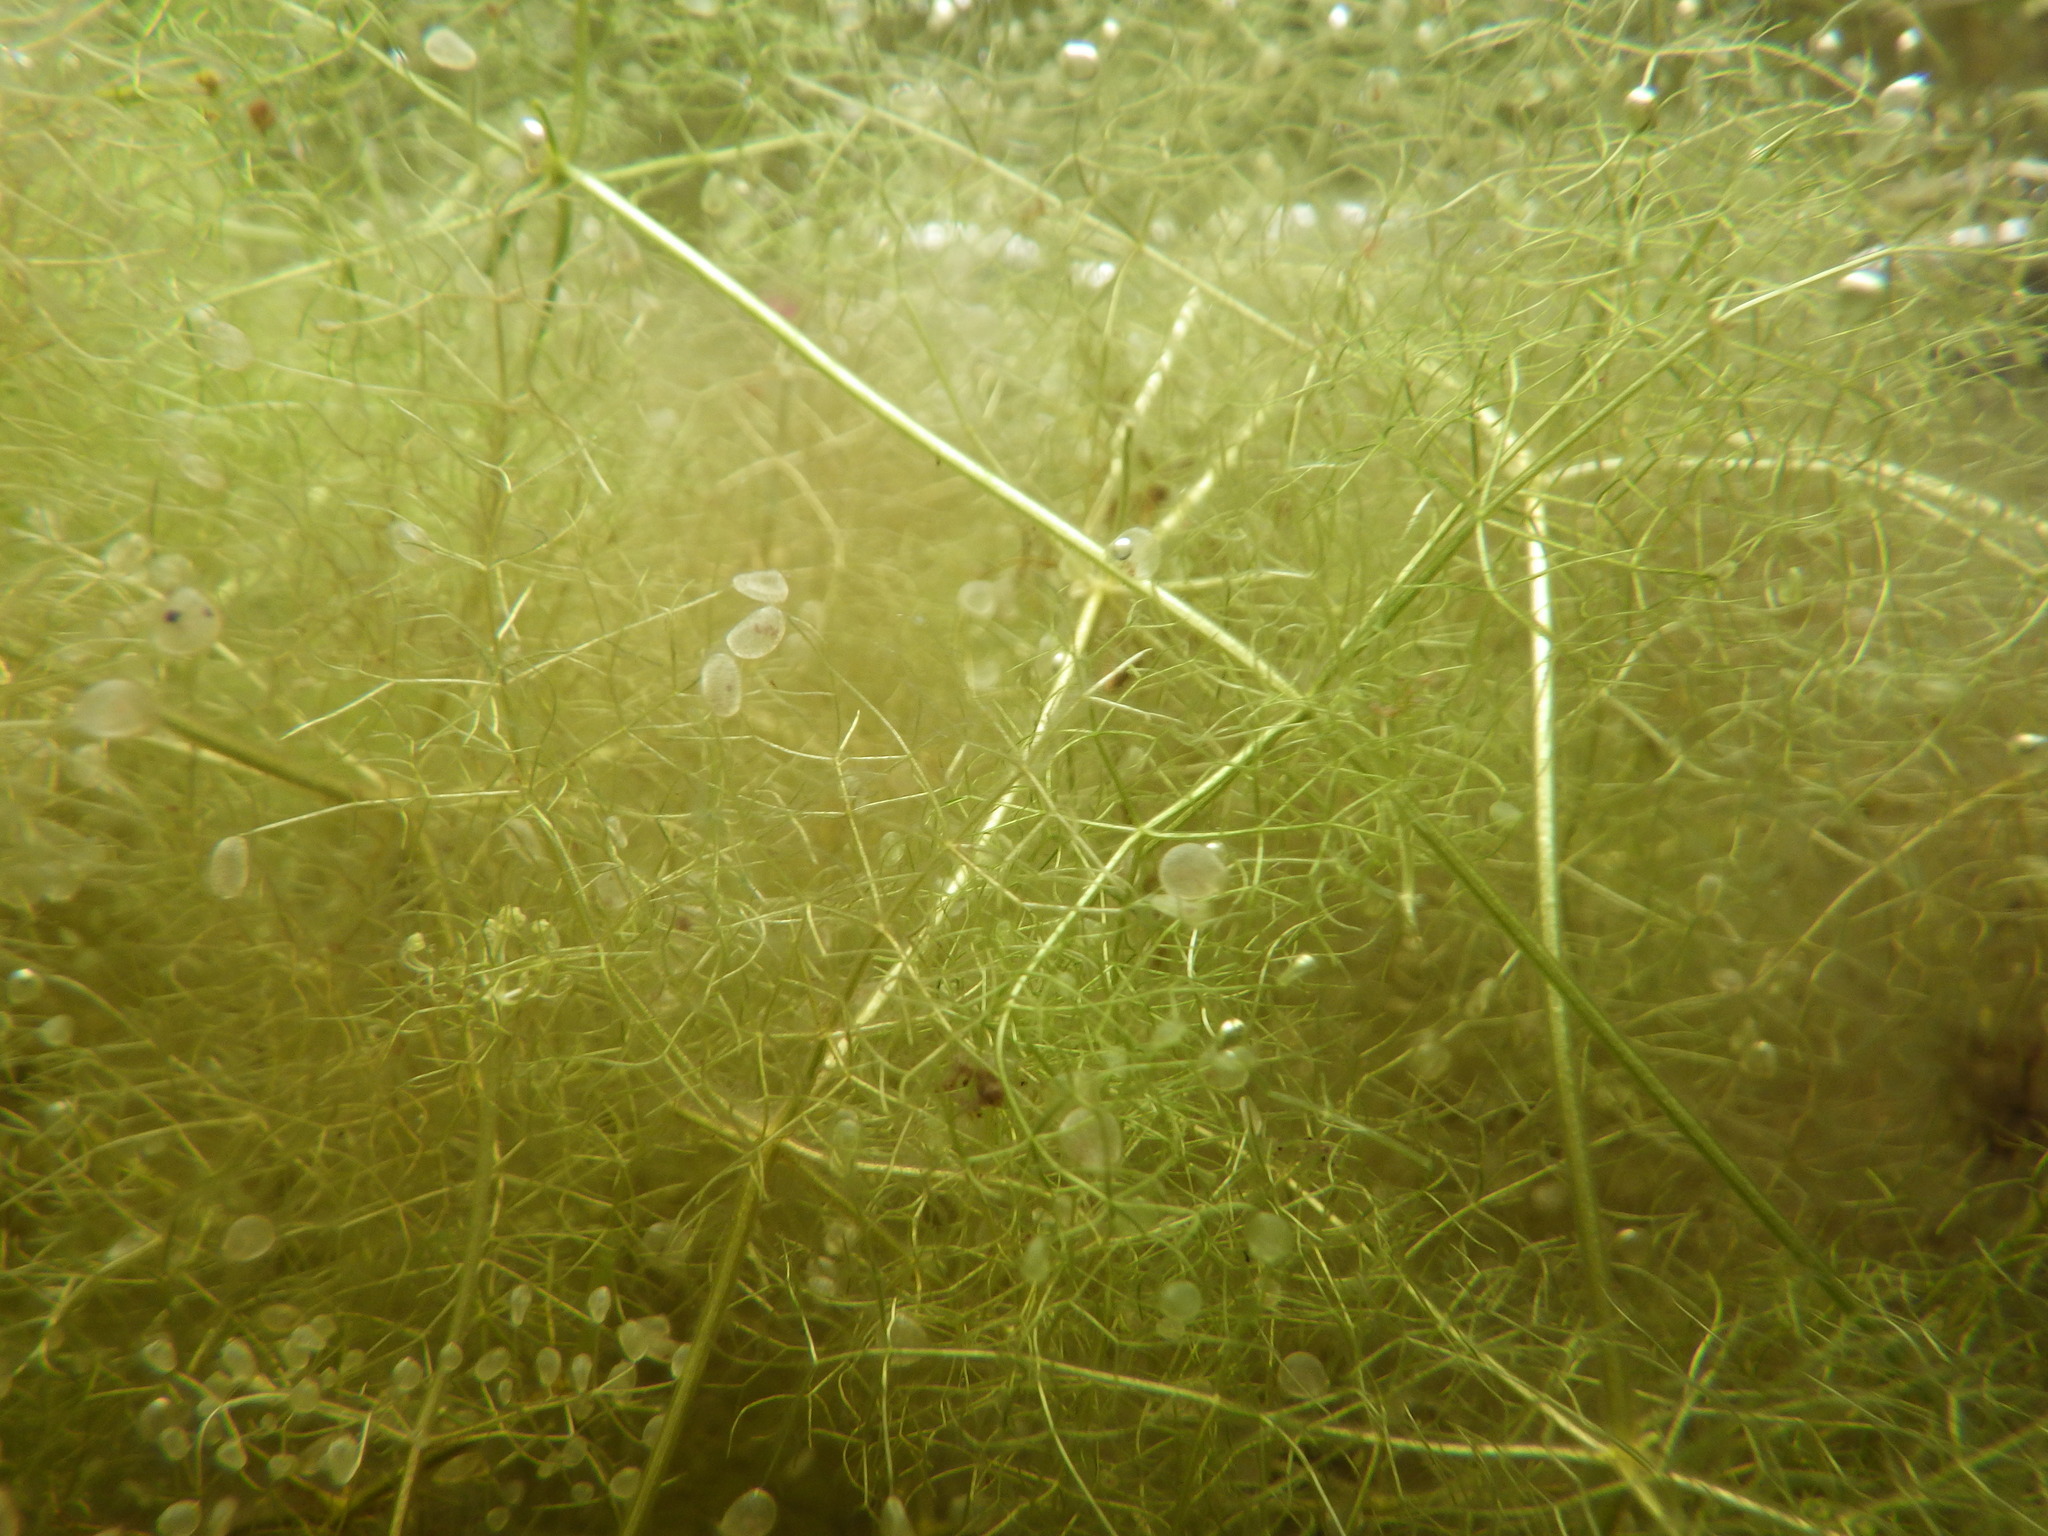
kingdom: Plantae
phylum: Tracheophyta
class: Magnoliopsida
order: Lamiales
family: Lentibulariaceae
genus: Utricularia
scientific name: Utricularia purpurea
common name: Eastern purple bladderwort
